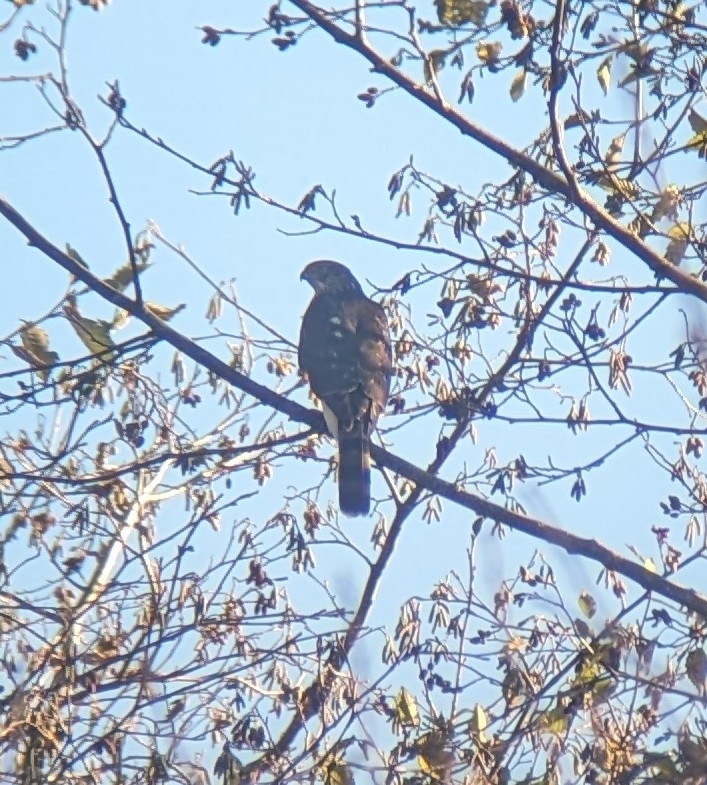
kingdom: Animalia
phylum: Chordata
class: Aves
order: Accipitriformes
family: Accipitridae
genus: Accipiter
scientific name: Accipiter cooperii
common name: Cooper's hawk
